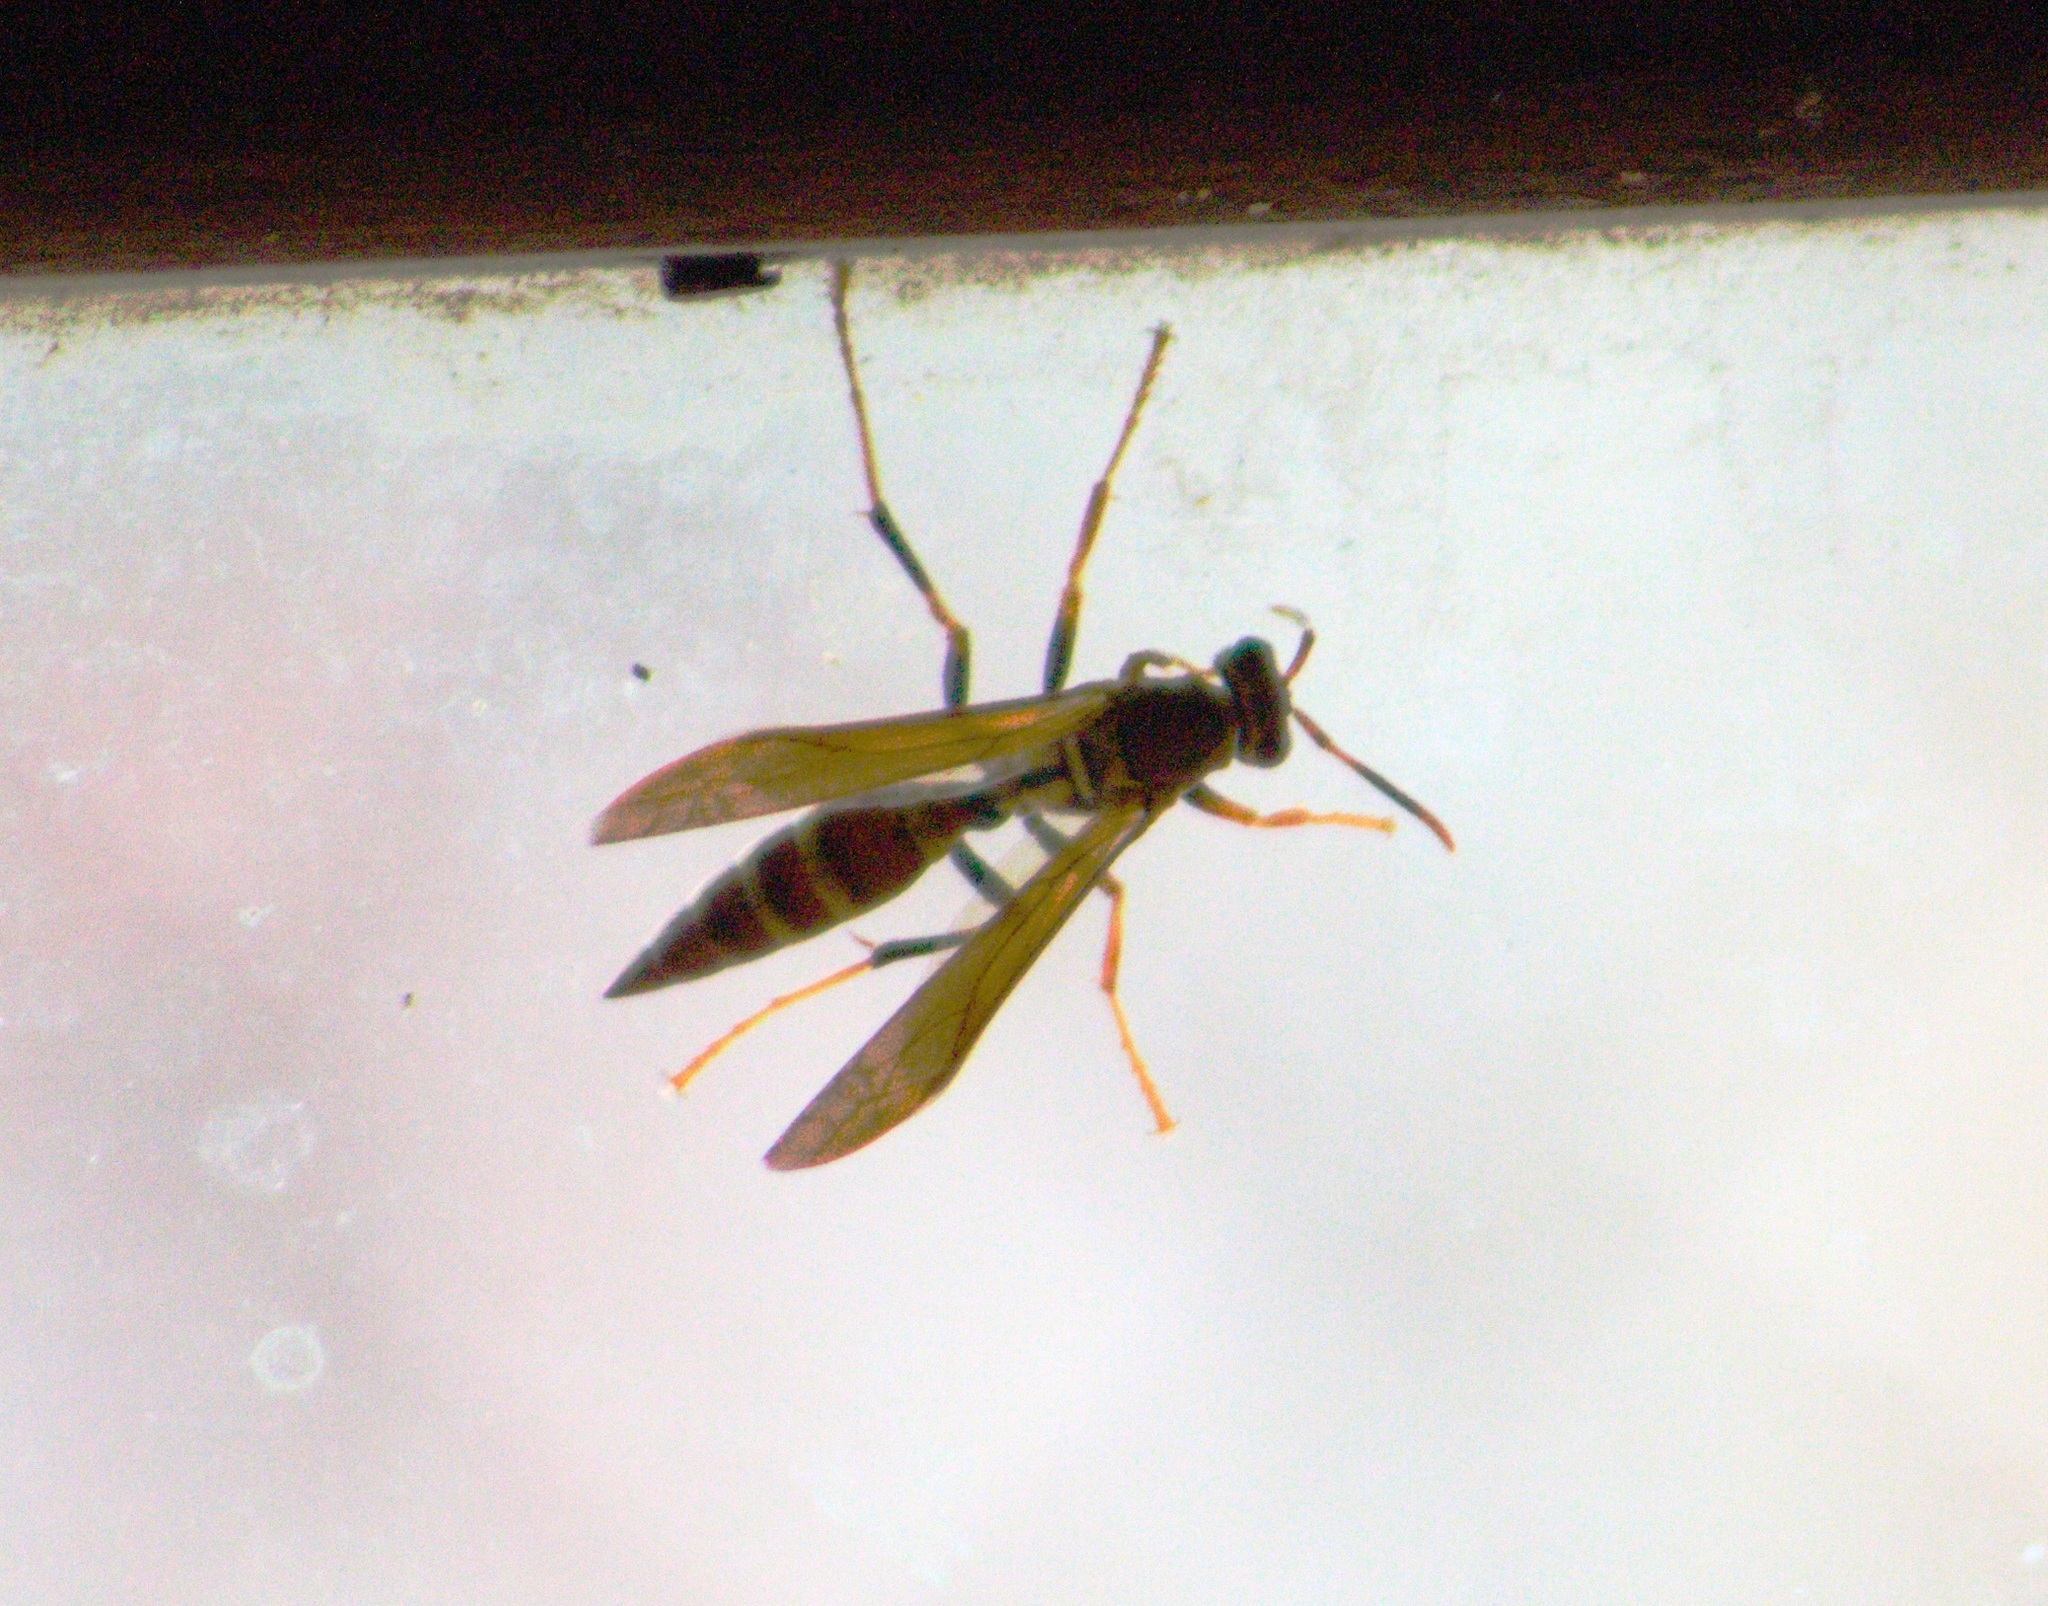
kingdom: Animalia
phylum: Arthropoda
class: Insecta
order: Hymenoptera
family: Eumenidae
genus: Polistes
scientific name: Polistes instabilis
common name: Unstable paper wasp
